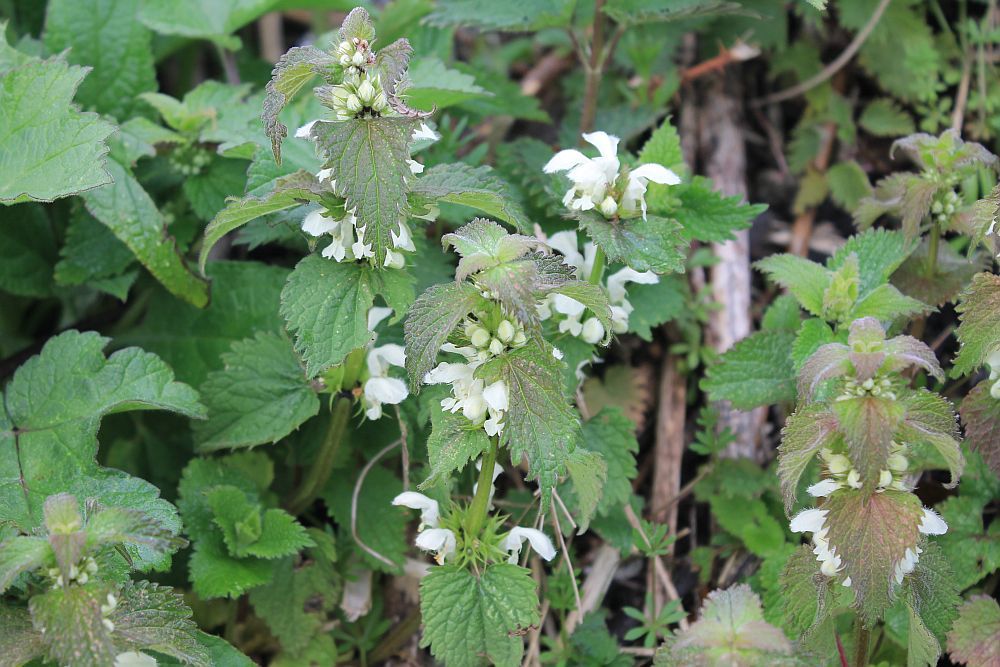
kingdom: Plantae
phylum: Tracheophyta
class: Magnoliopsida
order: Lamiales
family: Lamiaceae
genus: Lamium
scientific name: Lamium album
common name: White dead-nettle
